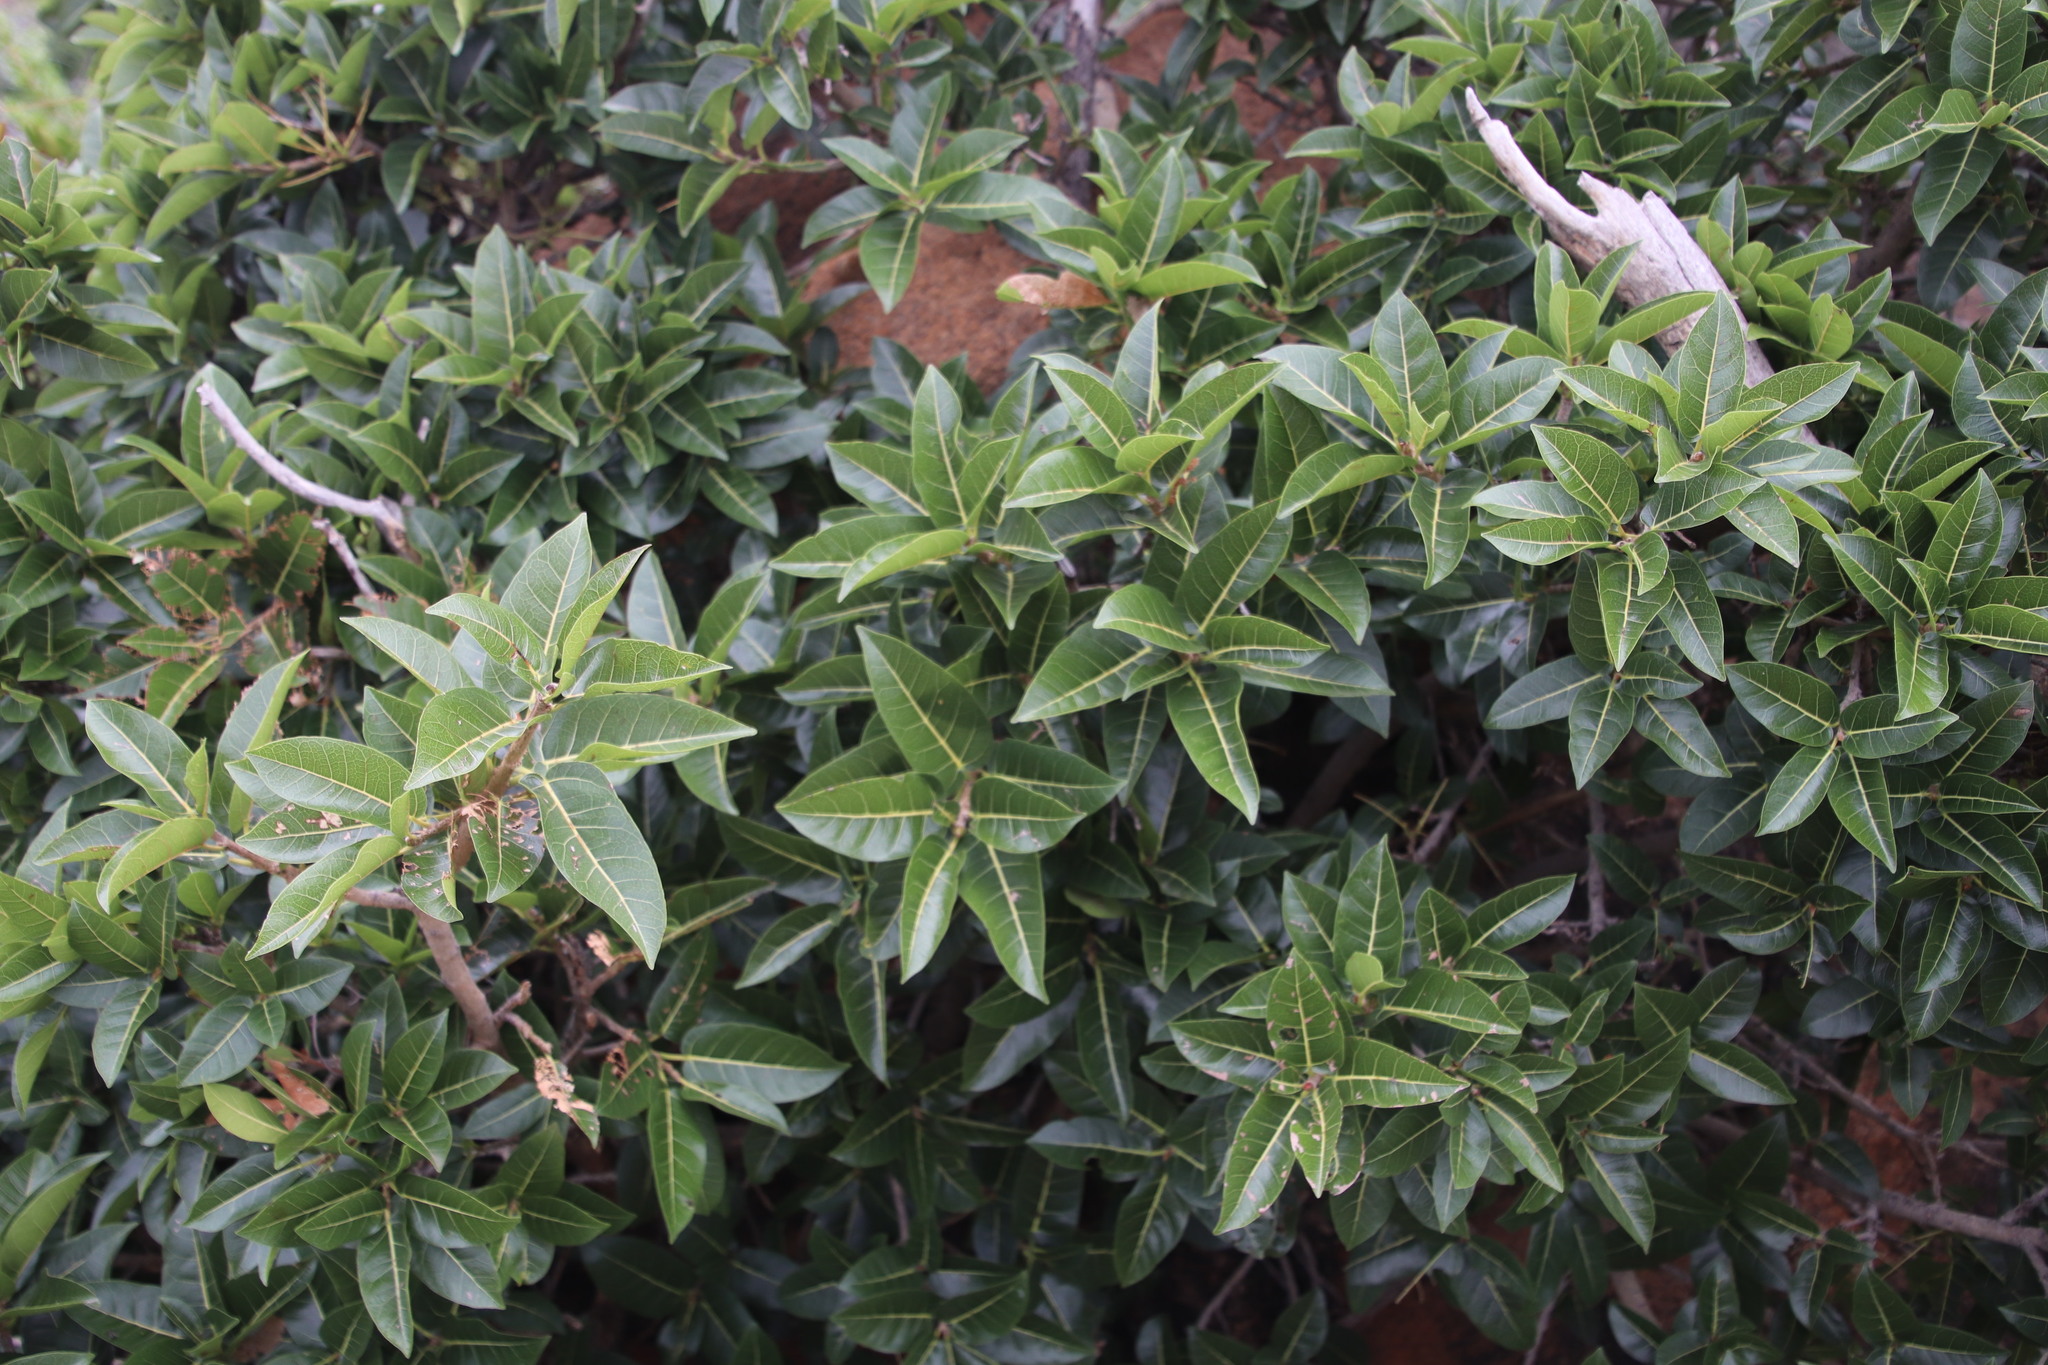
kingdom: Plantae
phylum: Tracheophyta
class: Magnoliopsida
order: Rosales
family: Moraceae
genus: Ficus
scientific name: Ficus ingens
